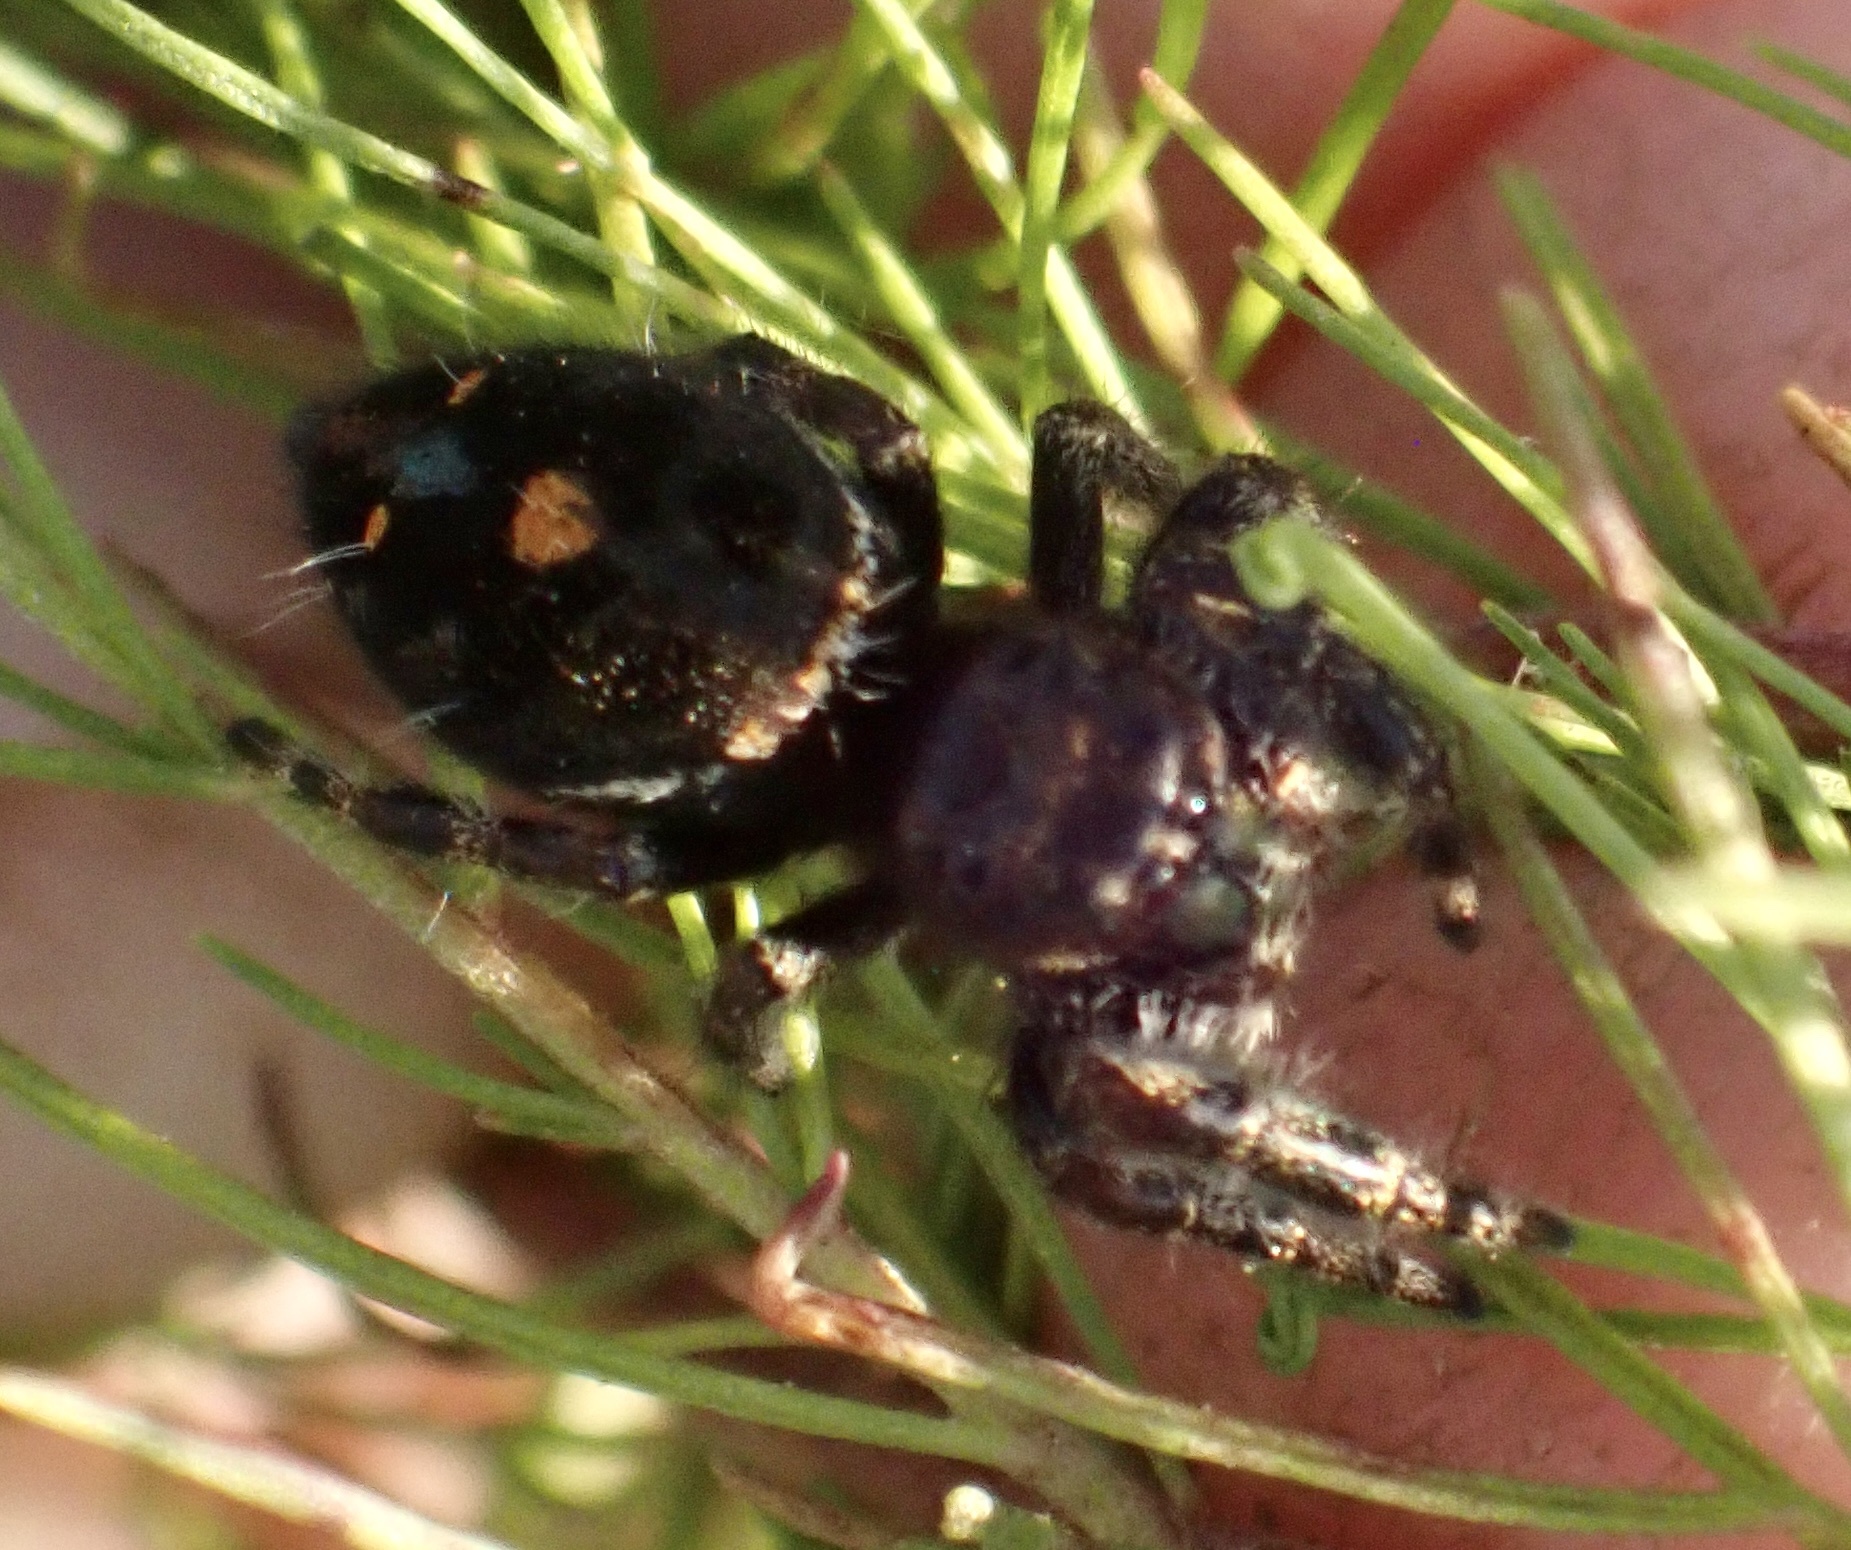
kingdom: Animalia
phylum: Arthropoda
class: Arachnida
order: Araneae
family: Salticidae
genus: Phidippus
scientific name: Phidippus audax
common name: Bold jumper
